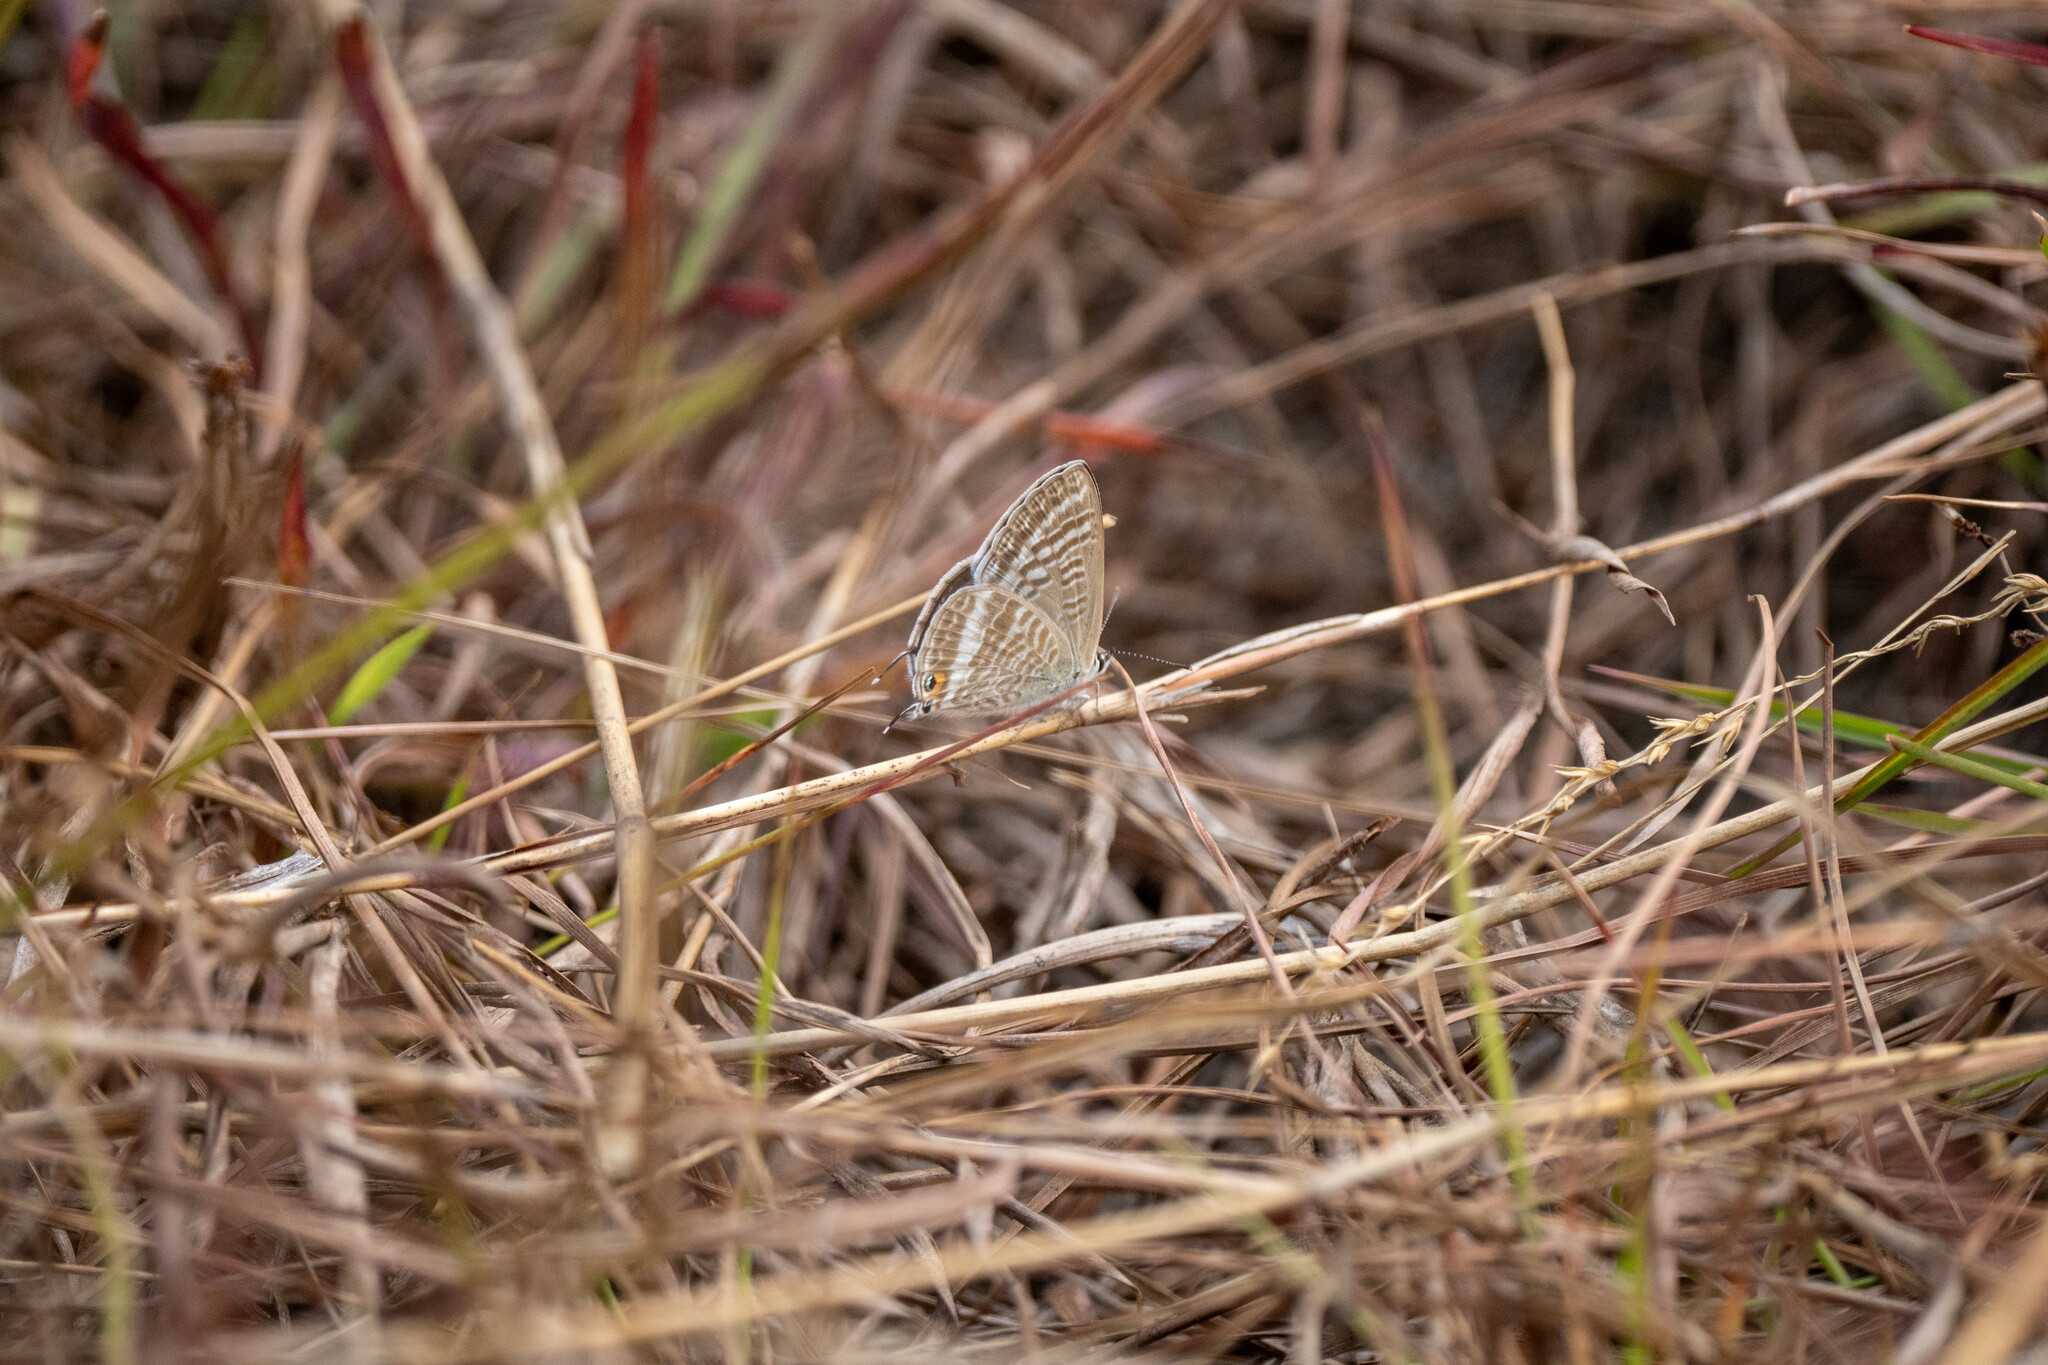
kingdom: Animalia
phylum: Arthropoda
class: Insecta
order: Lepidoptera
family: Lycaenidae
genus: Lampides
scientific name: Lampides boeticus
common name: Long-tailed blue
